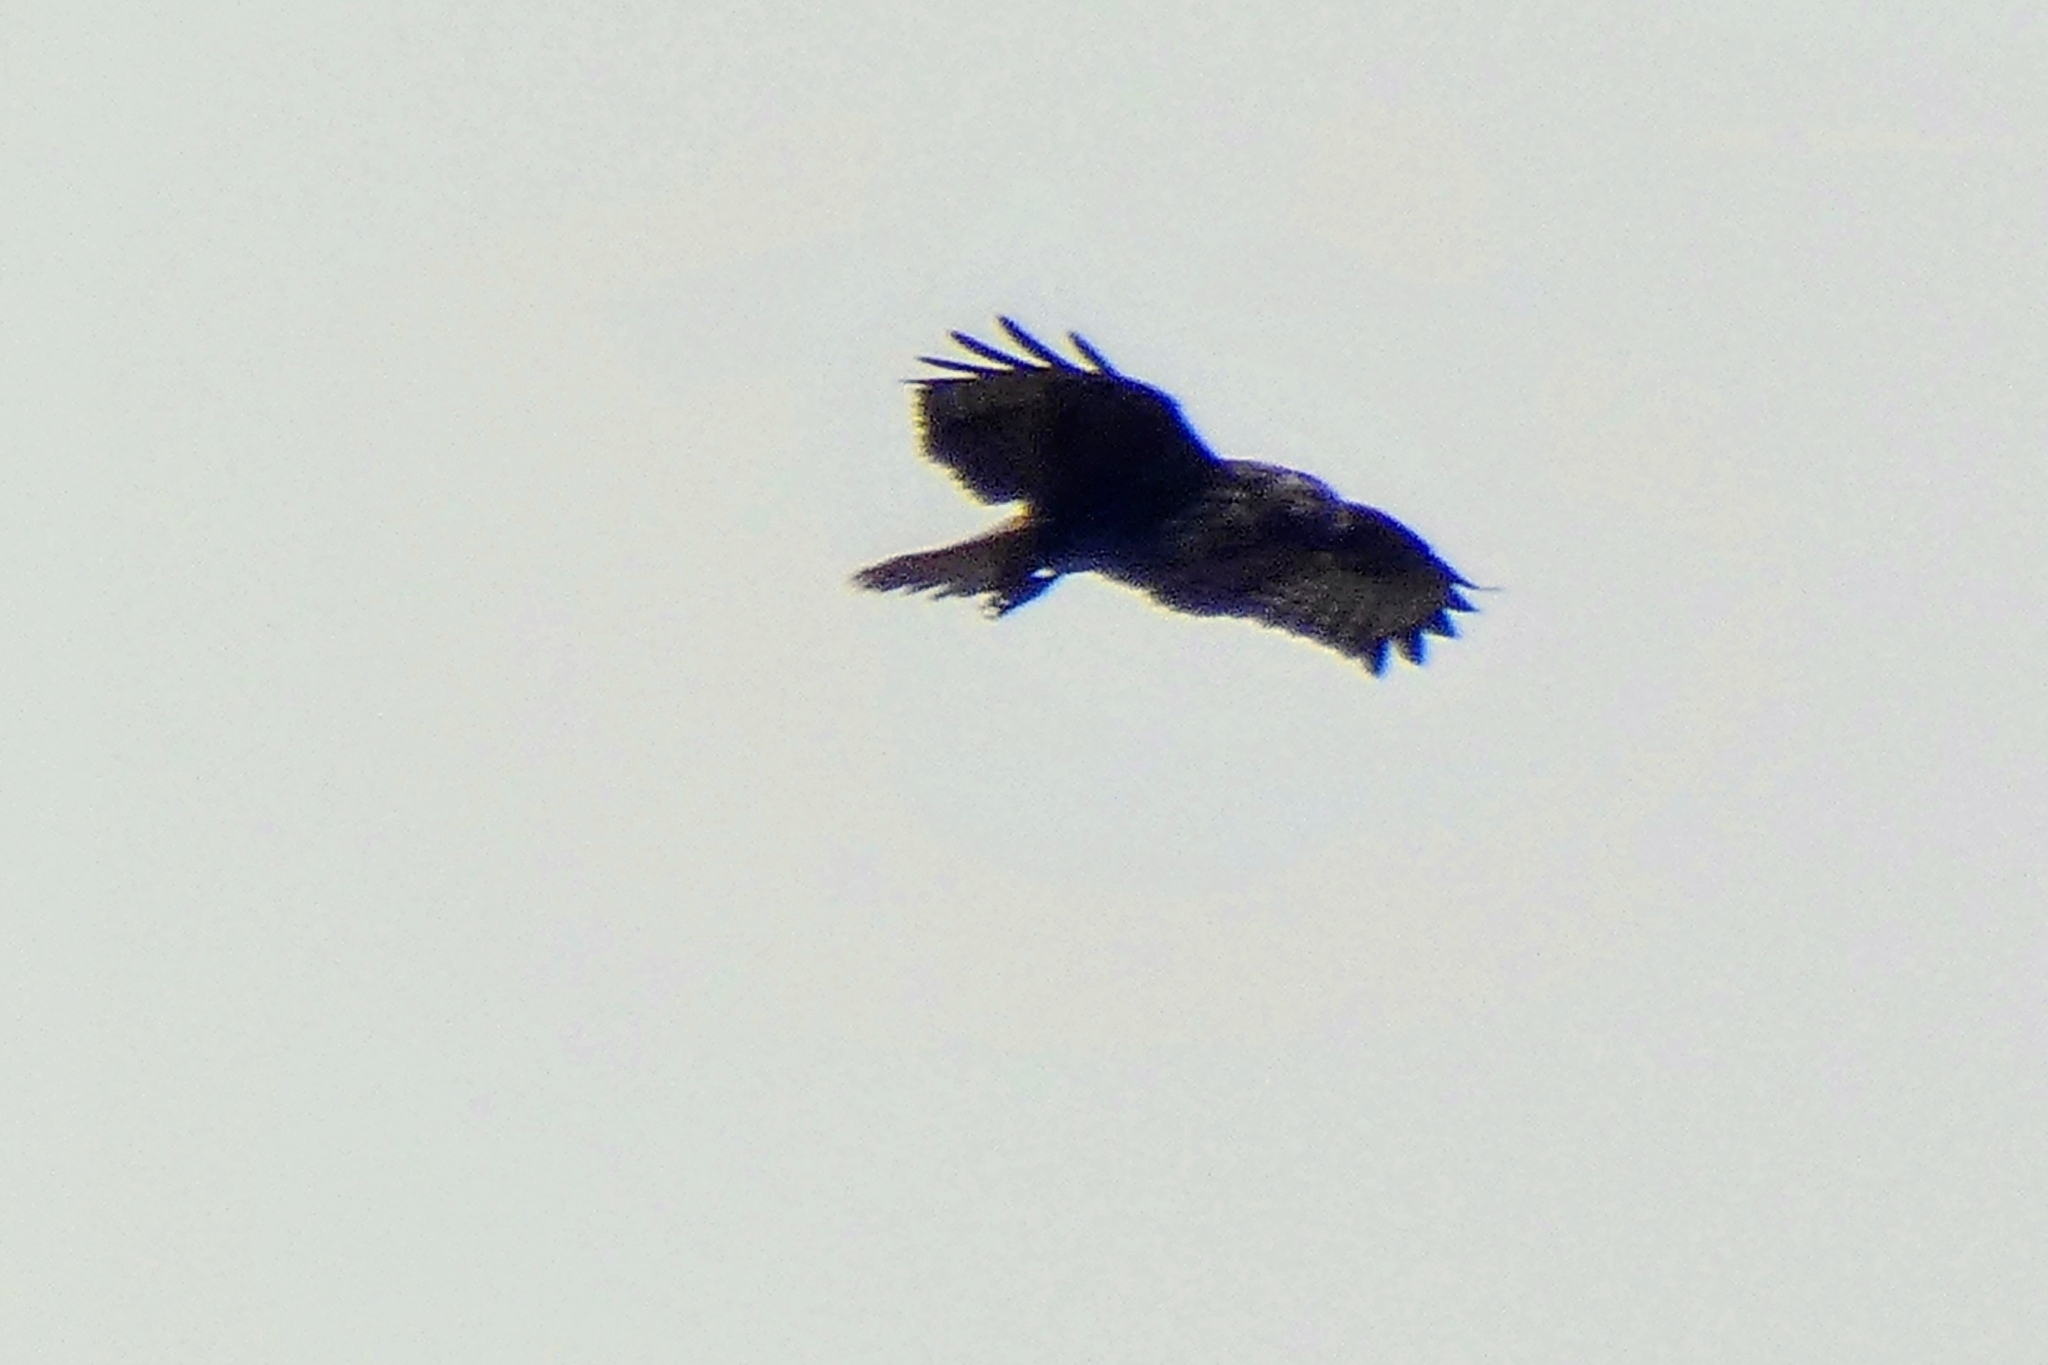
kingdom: Animalia
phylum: Chordata
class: Aves
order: Accipitriformes
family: Accipitridae
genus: Buteo
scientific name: Buteo buteo
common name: Common buzzard
